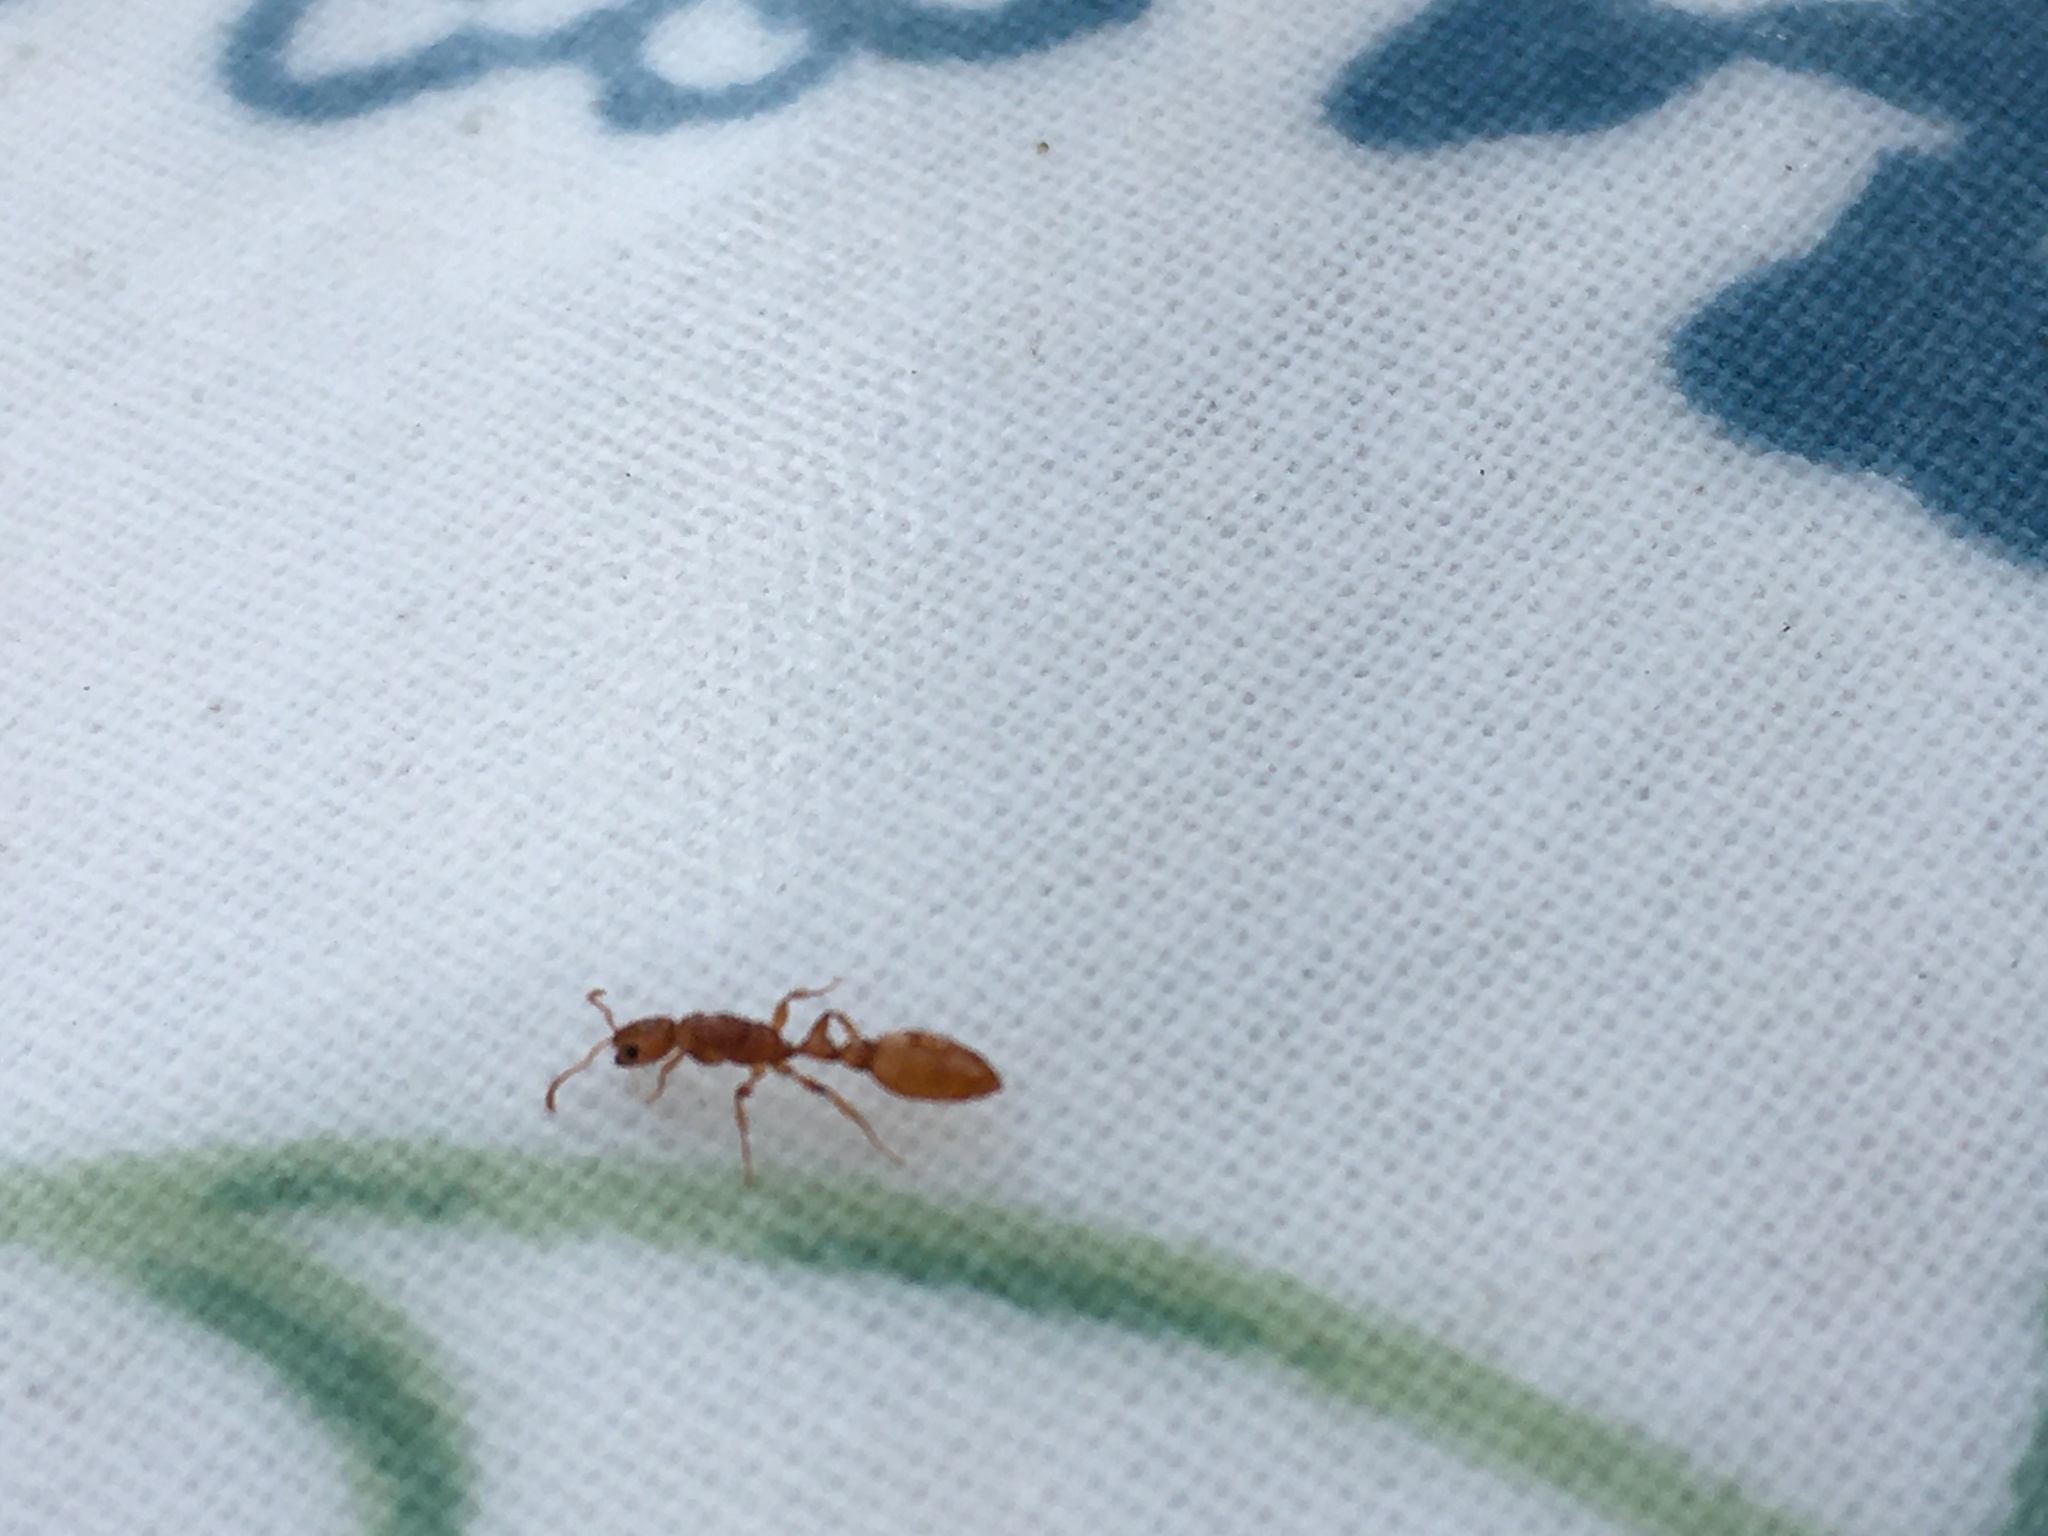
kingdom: Animalia
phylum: Arthropoda
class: Insecta
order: Hymenoptera
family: Formicidae
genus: Tetraponera
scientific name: Tetraponera emeryi
